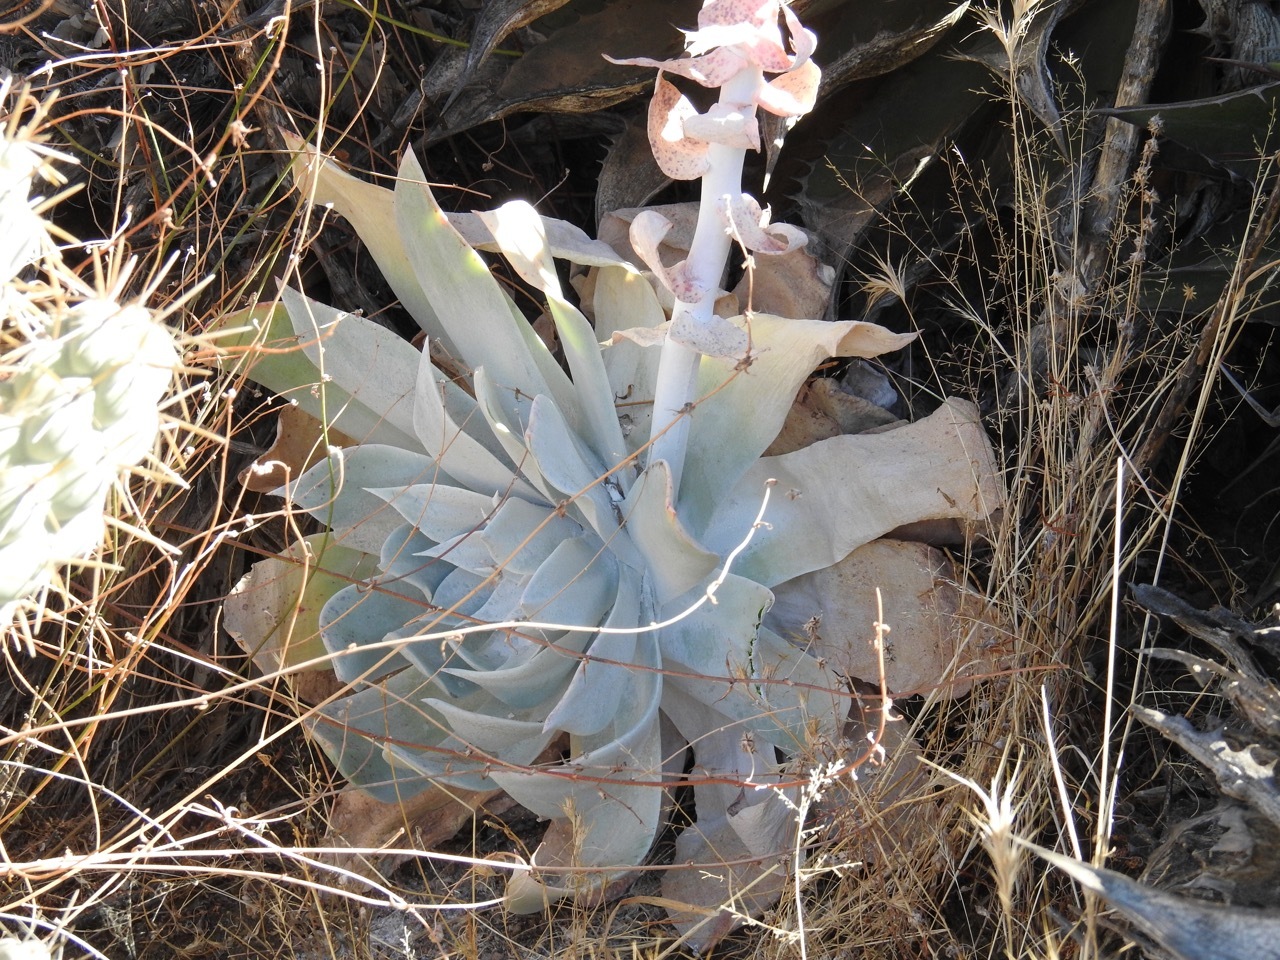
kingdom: Plantae
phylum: Tracheophyta
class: Magnoliopsida
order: Saxifragales
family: Crassulaceae
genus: Dudleya
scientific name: Dudleya pulverulenta
